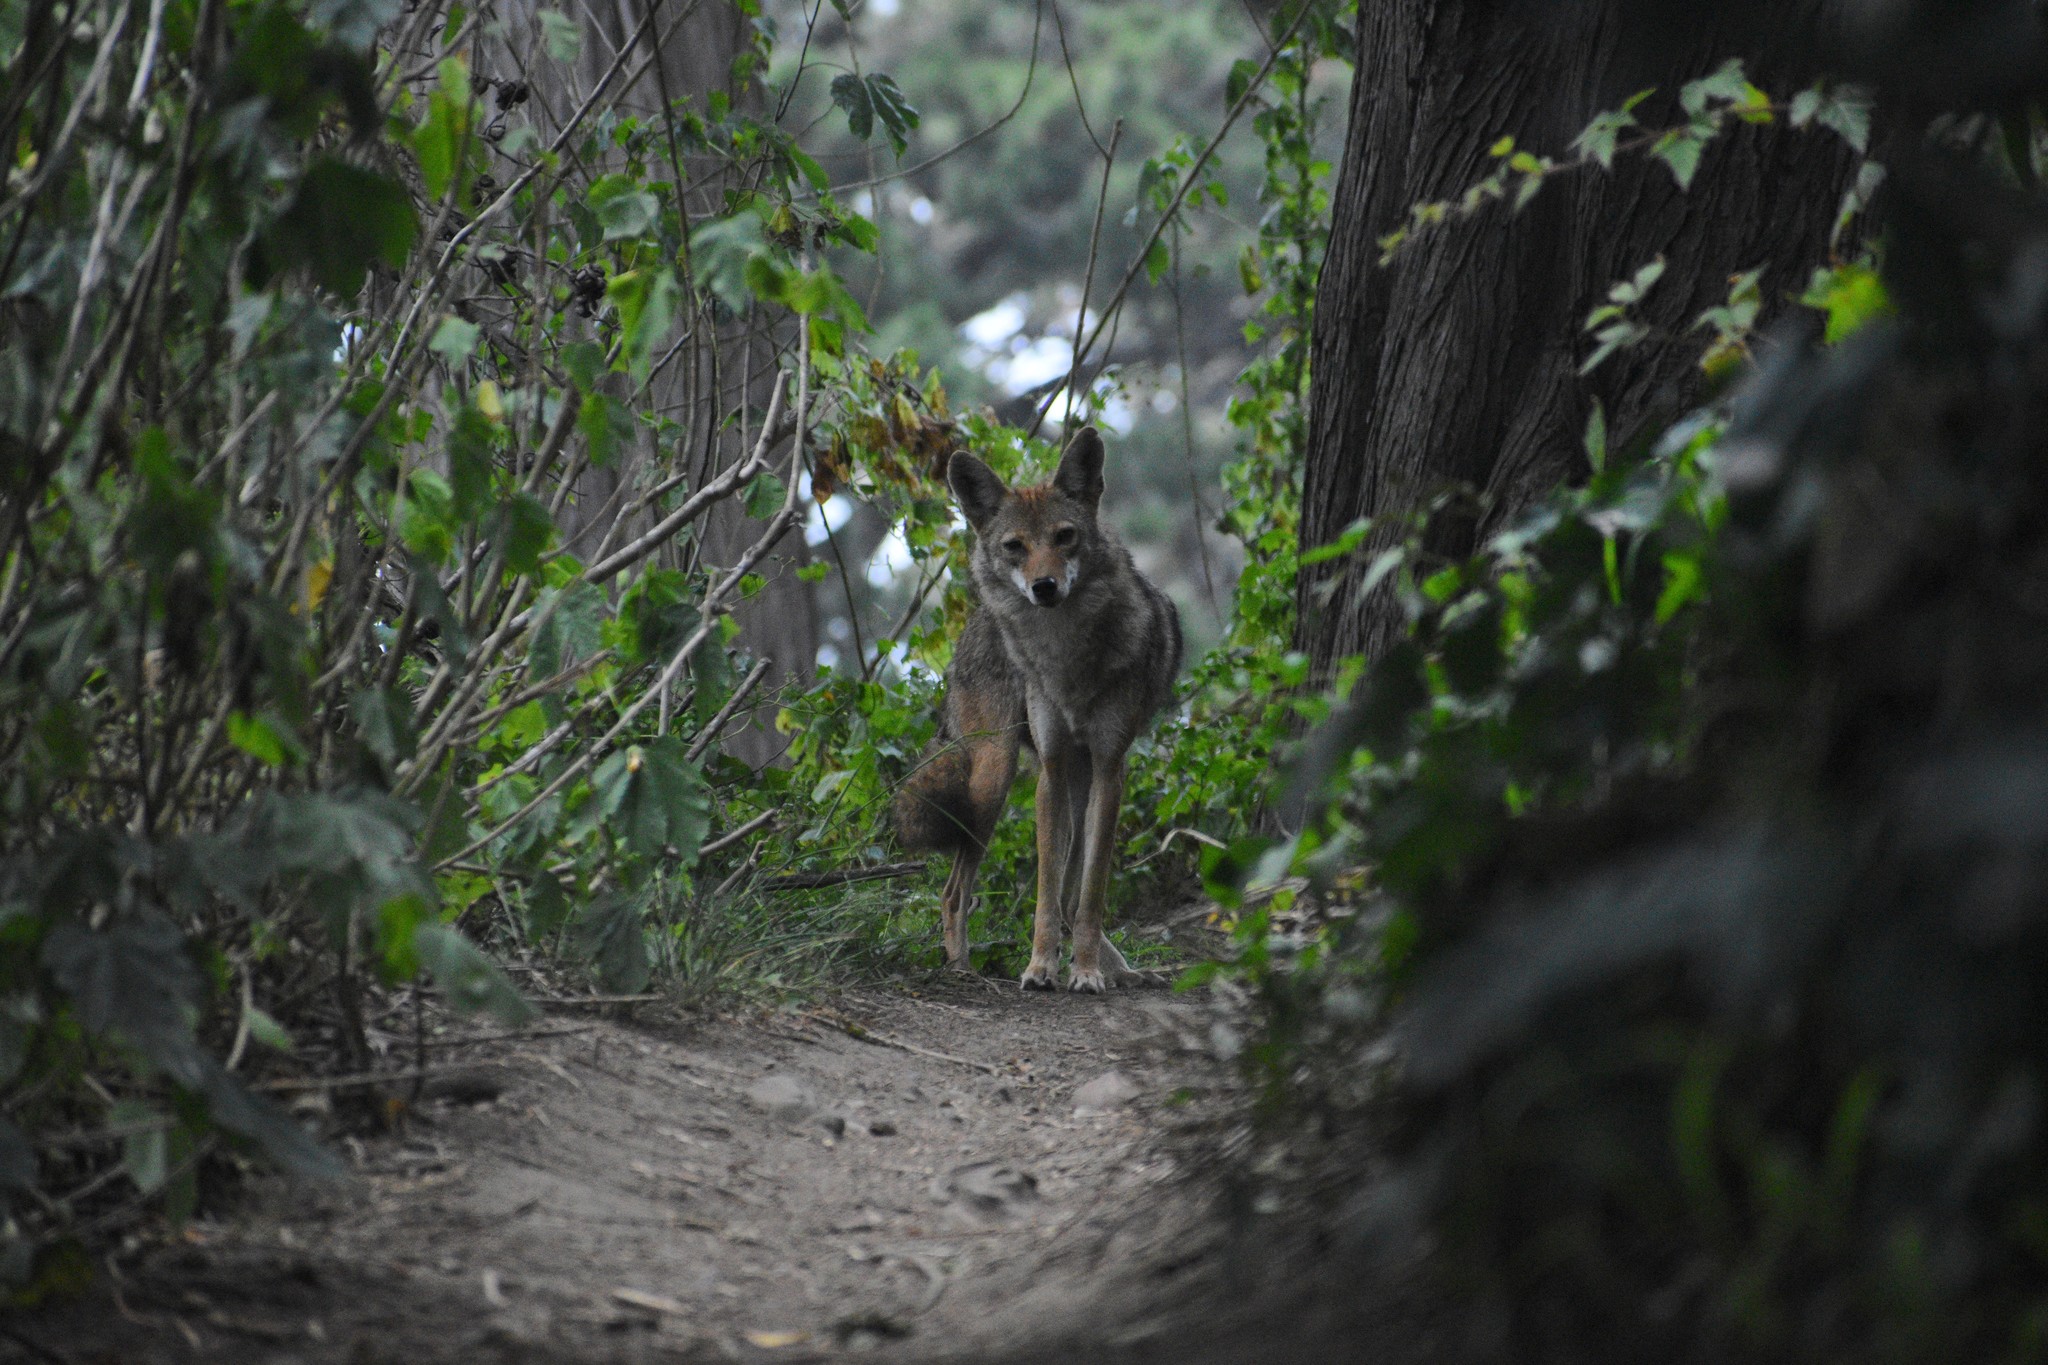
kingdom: Animalia
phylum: Chordata
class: Mammalia
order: Carnivora
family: Canidae
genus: Canis
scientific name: Canis latrans
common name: Coyote
